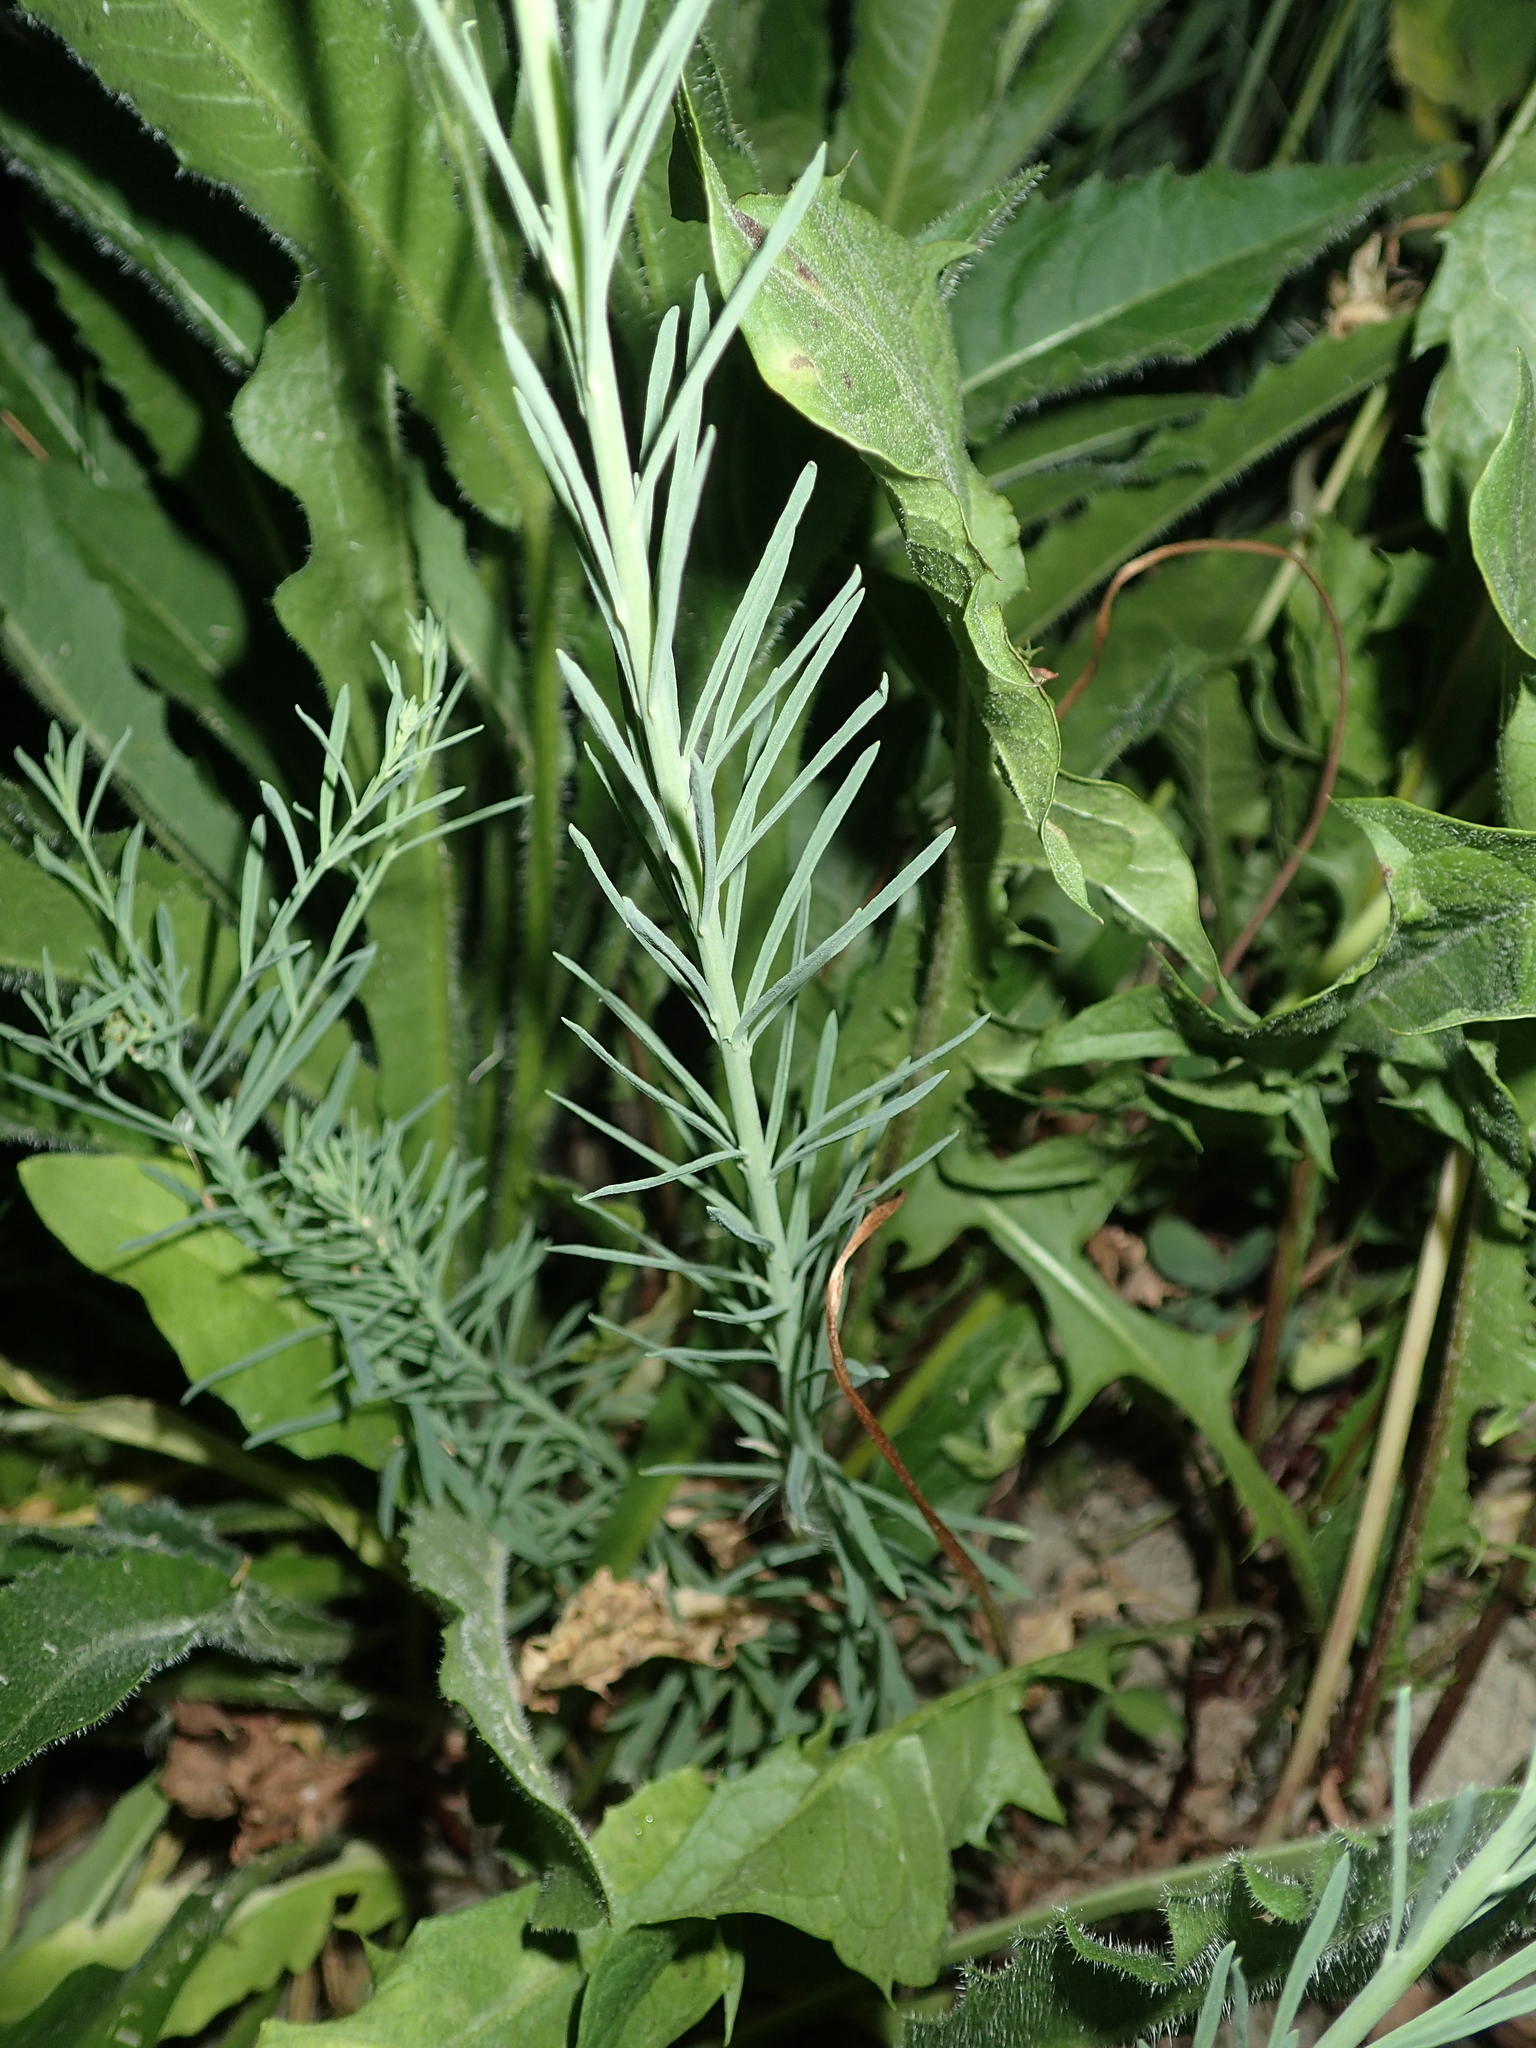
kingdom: Plantae
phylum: Tracheophyta
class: Magnoliopsida
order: Lamiales
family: Plantaginaceae
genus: Linaria
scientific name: Linaria repens
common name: Pale toadflax
